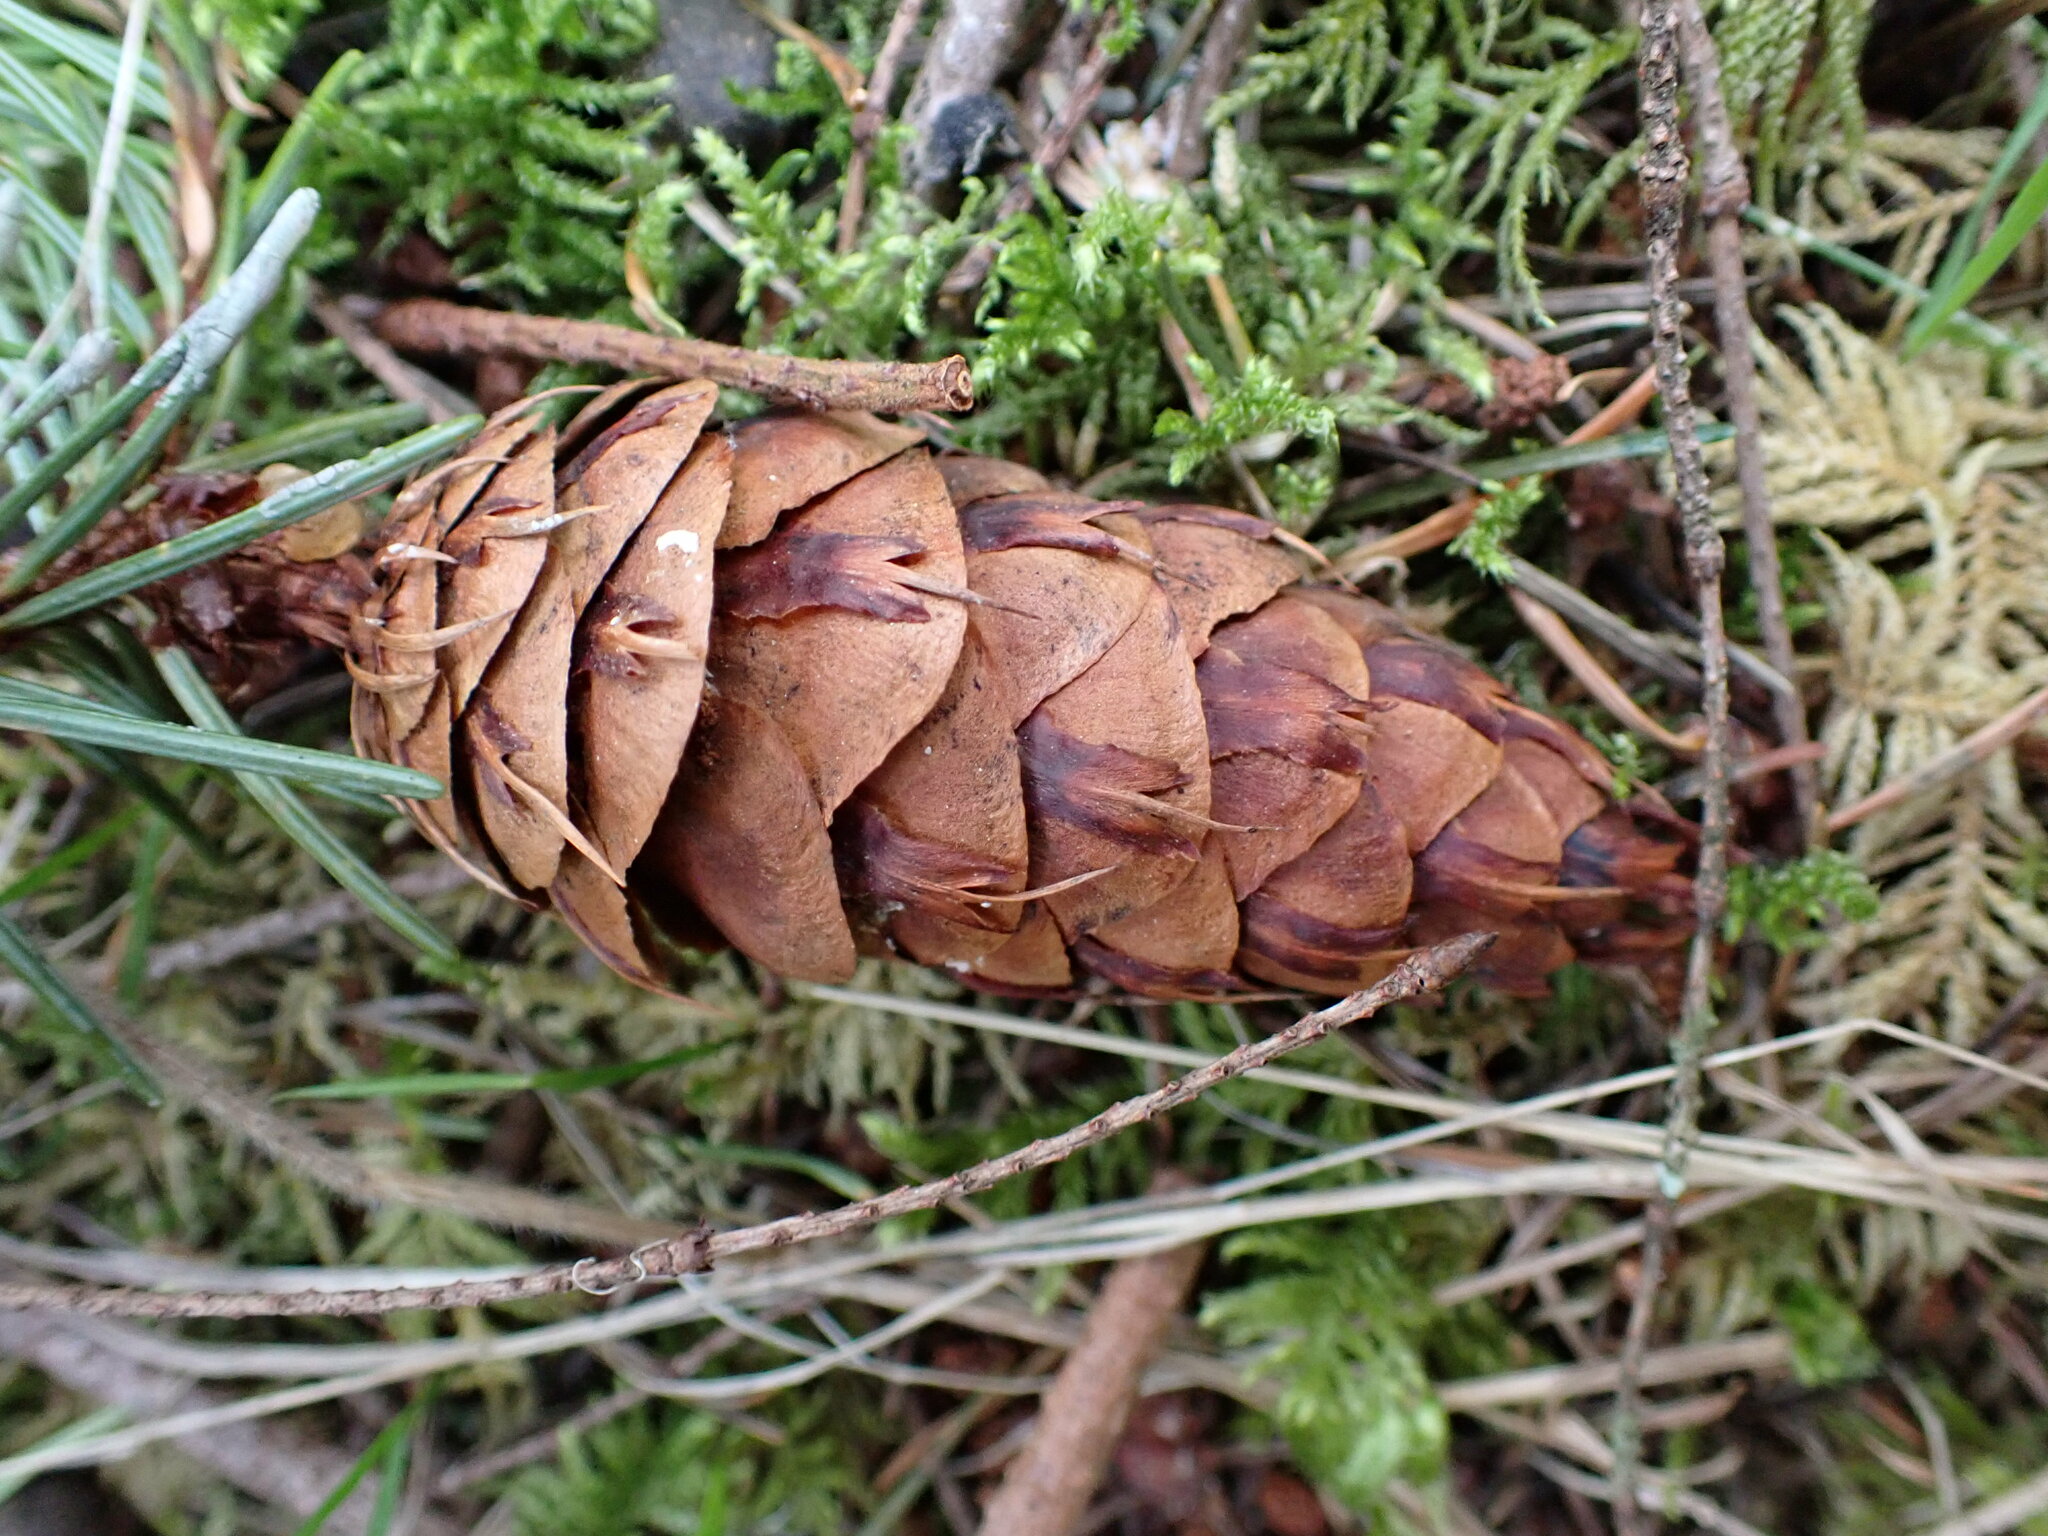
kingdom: Plantae
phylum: Tracheophyta
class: Pinopsida
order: Pinales
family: Pinaceae
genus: Pseudotsuga
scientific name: Pseudotsuga menziesii
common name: Douglas fir
